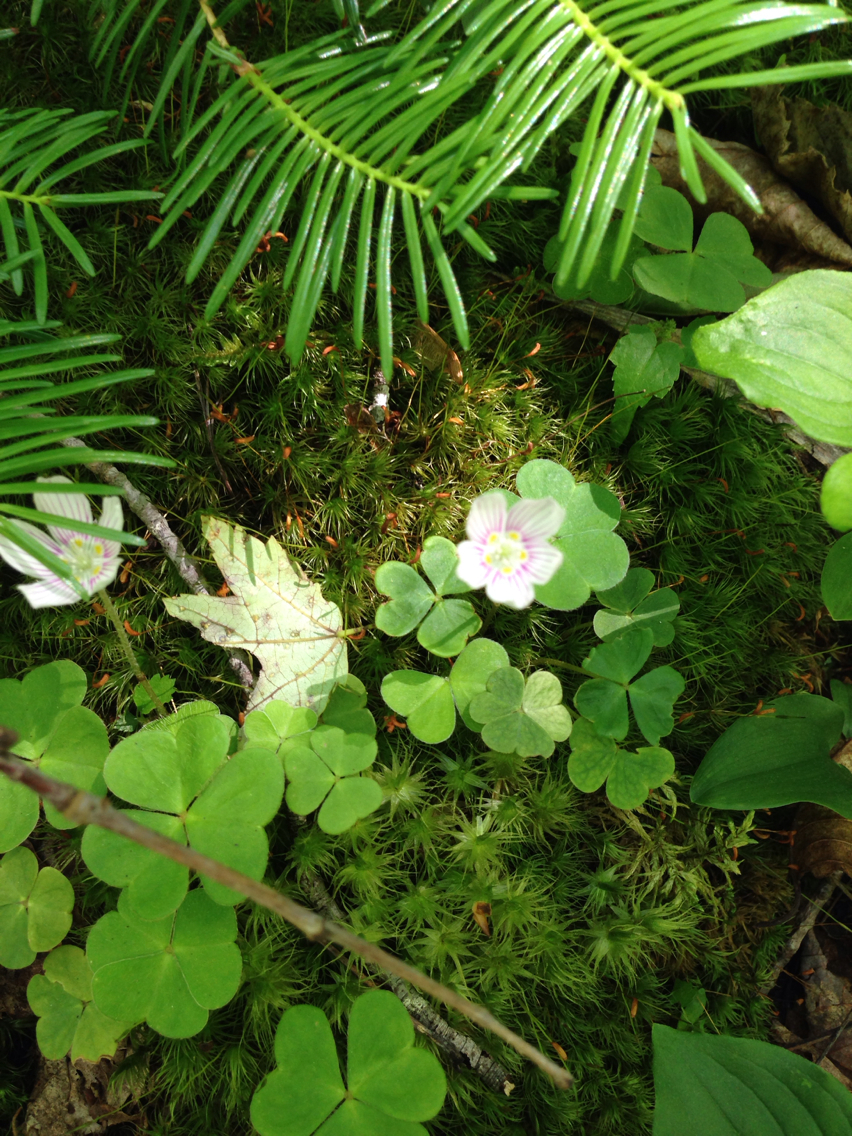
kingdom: Plantae
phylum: Tracheophyta
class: Magnoliopsida
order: Oxalidales
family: Oxalidaceae
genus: Oxalis
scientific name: Oxalis montana
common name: American wood-sorrel
